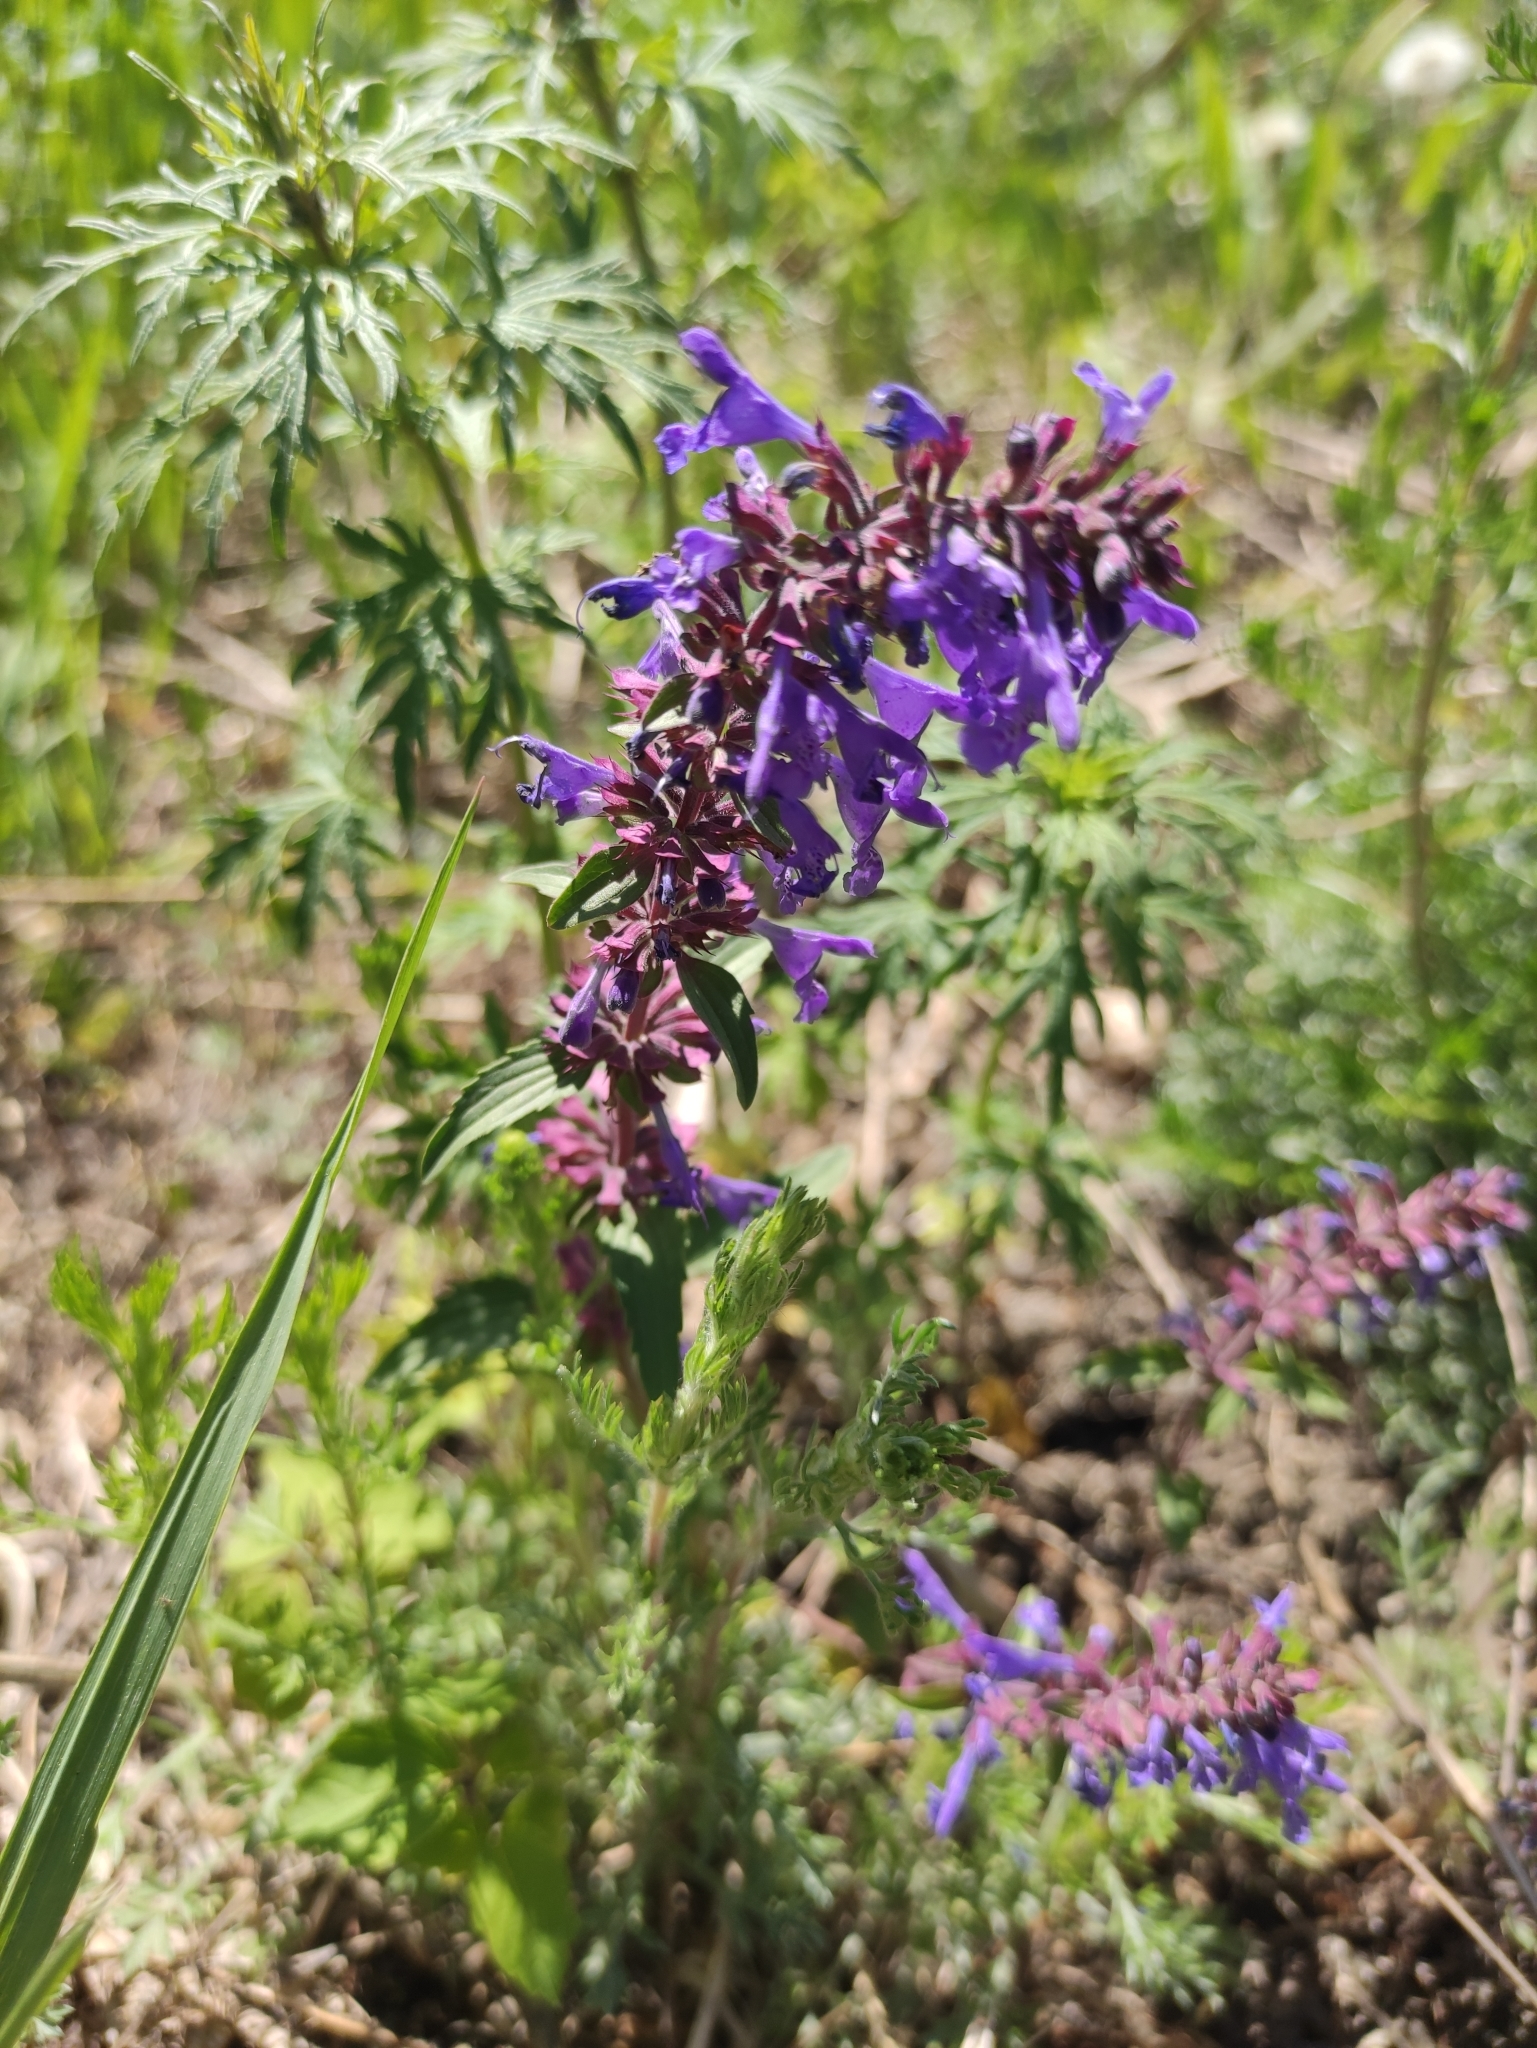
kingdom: Plantae
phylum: Tracheophyta
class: Magnoliopsida
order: Lamiales
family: Lamiaceae
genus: Dracocephalum
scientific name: Dracocephalum nutans
